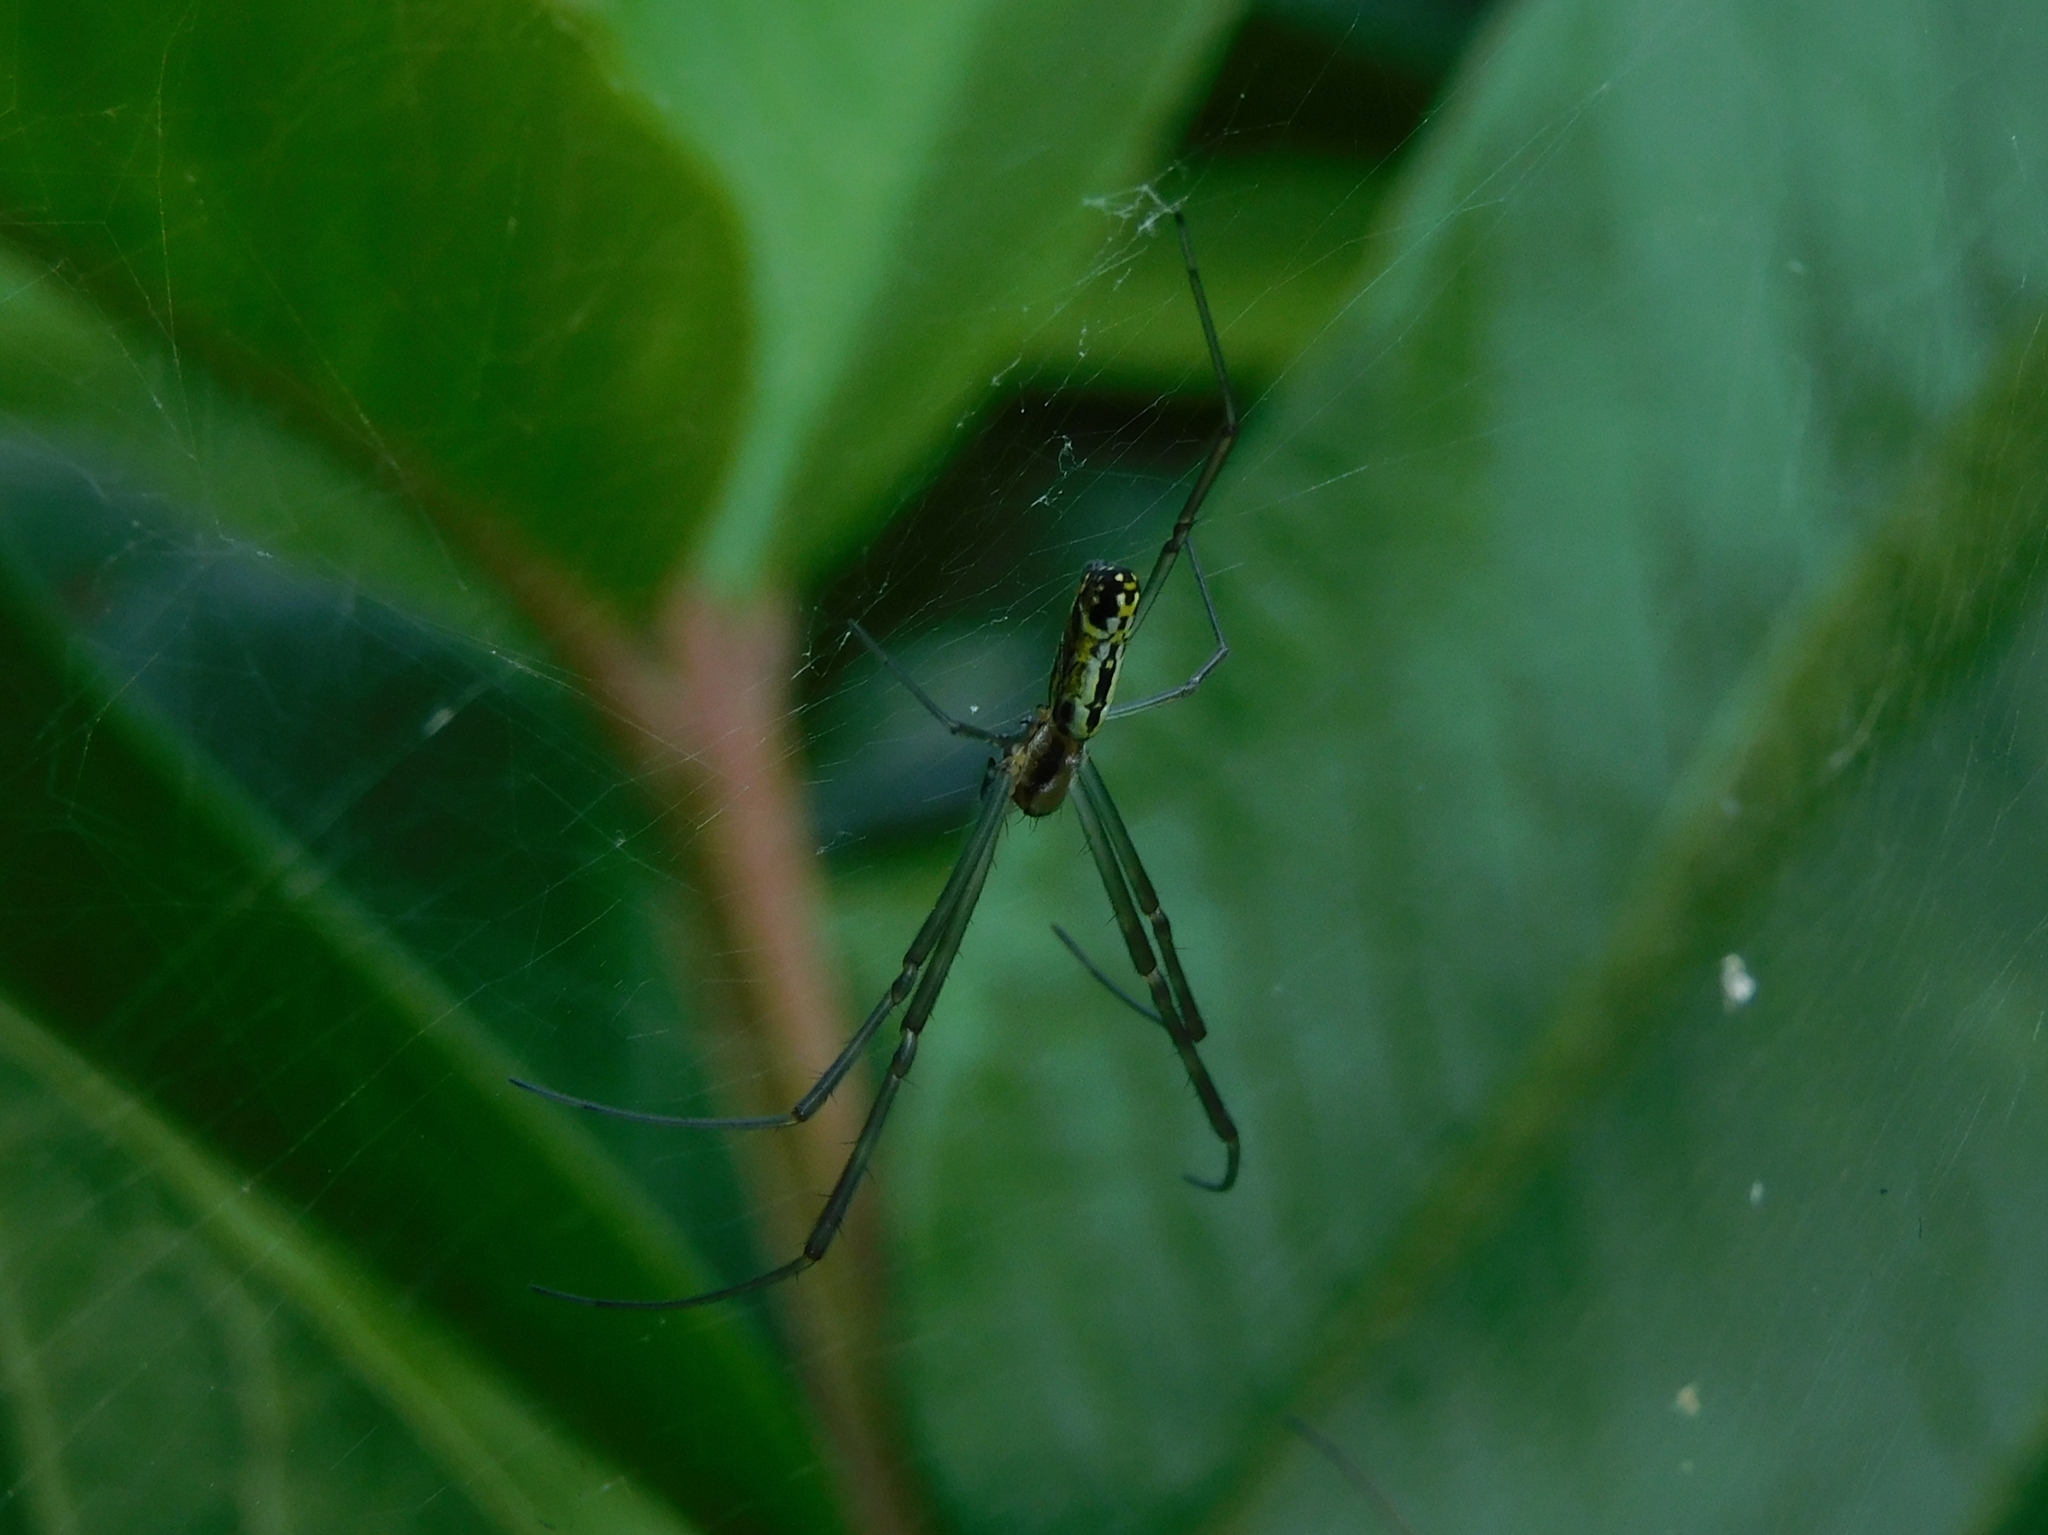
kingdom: Animalia
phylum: Arthropoda
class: Arachnida
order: Araneae
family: Araneidae
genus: Trichonephila
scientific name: Trichonephila clavata
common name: Jorō spider
